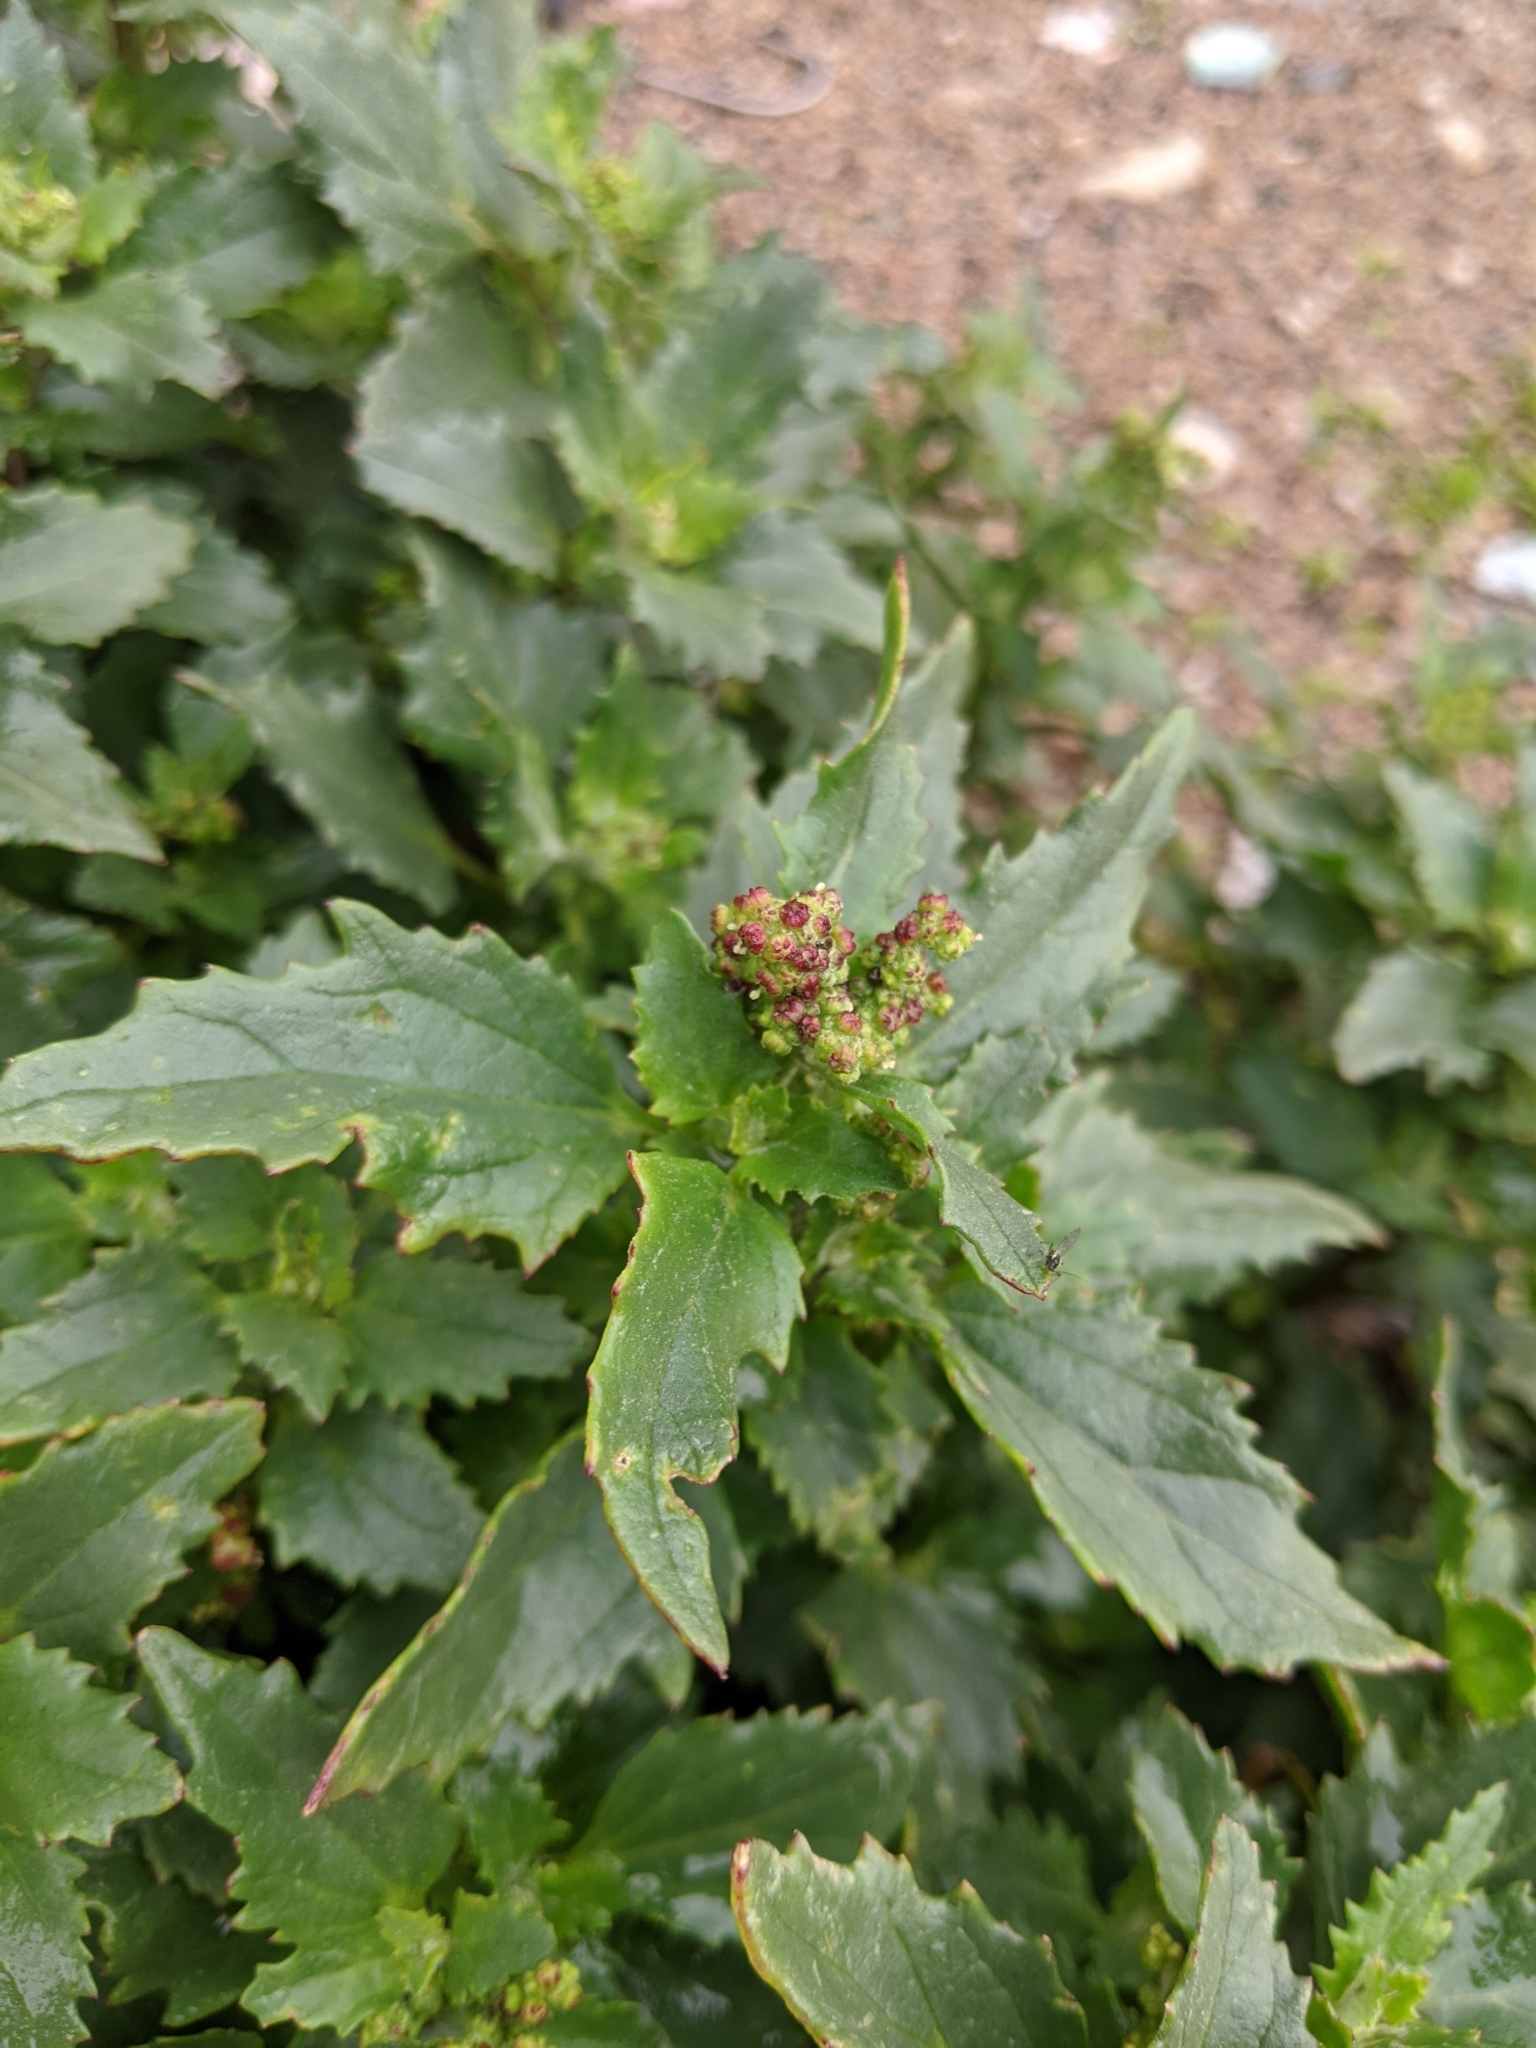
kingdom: Plantae
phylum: Tracheophyta
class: Magnoliopsida
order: Caryophyllales
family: Amaranthaceae
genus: Chenopodiastrum
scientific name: Chenopodiastrum murale
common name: Sowbane
